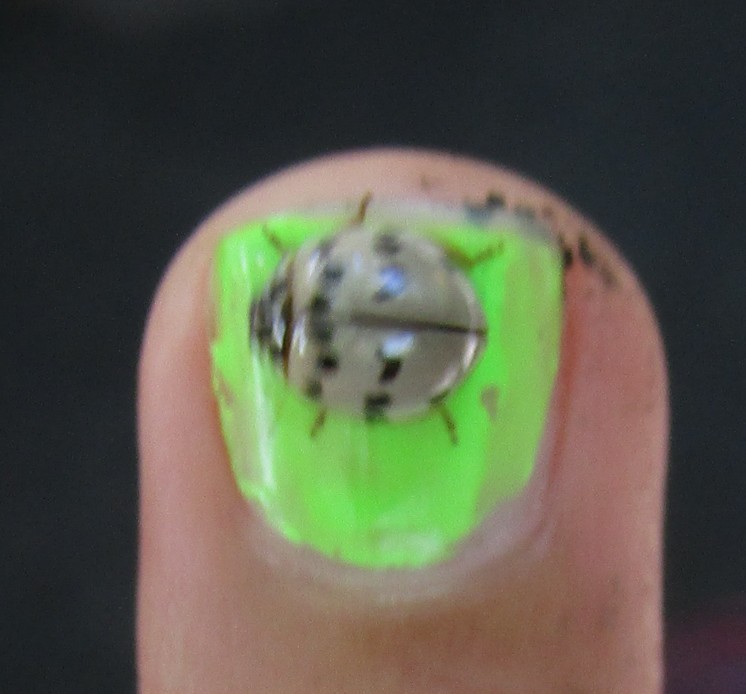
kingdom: Animalia
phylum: Arthropoda
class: Insecta
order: Coleoptera
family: Coccinellidae
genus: Olla
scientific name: Olla v-nigrum
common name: Ashy gray lady beetle
